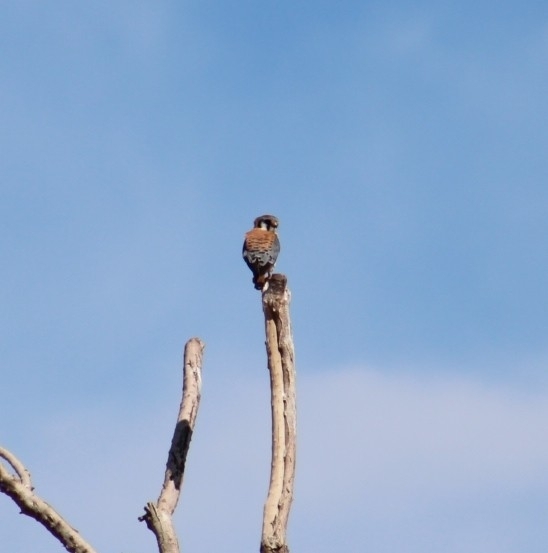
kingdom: Animalia
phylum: Chordata
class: Aves
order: Falconiformes
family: Falconidae
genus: Falco
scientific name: Falco sparverius
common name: American kestrel
